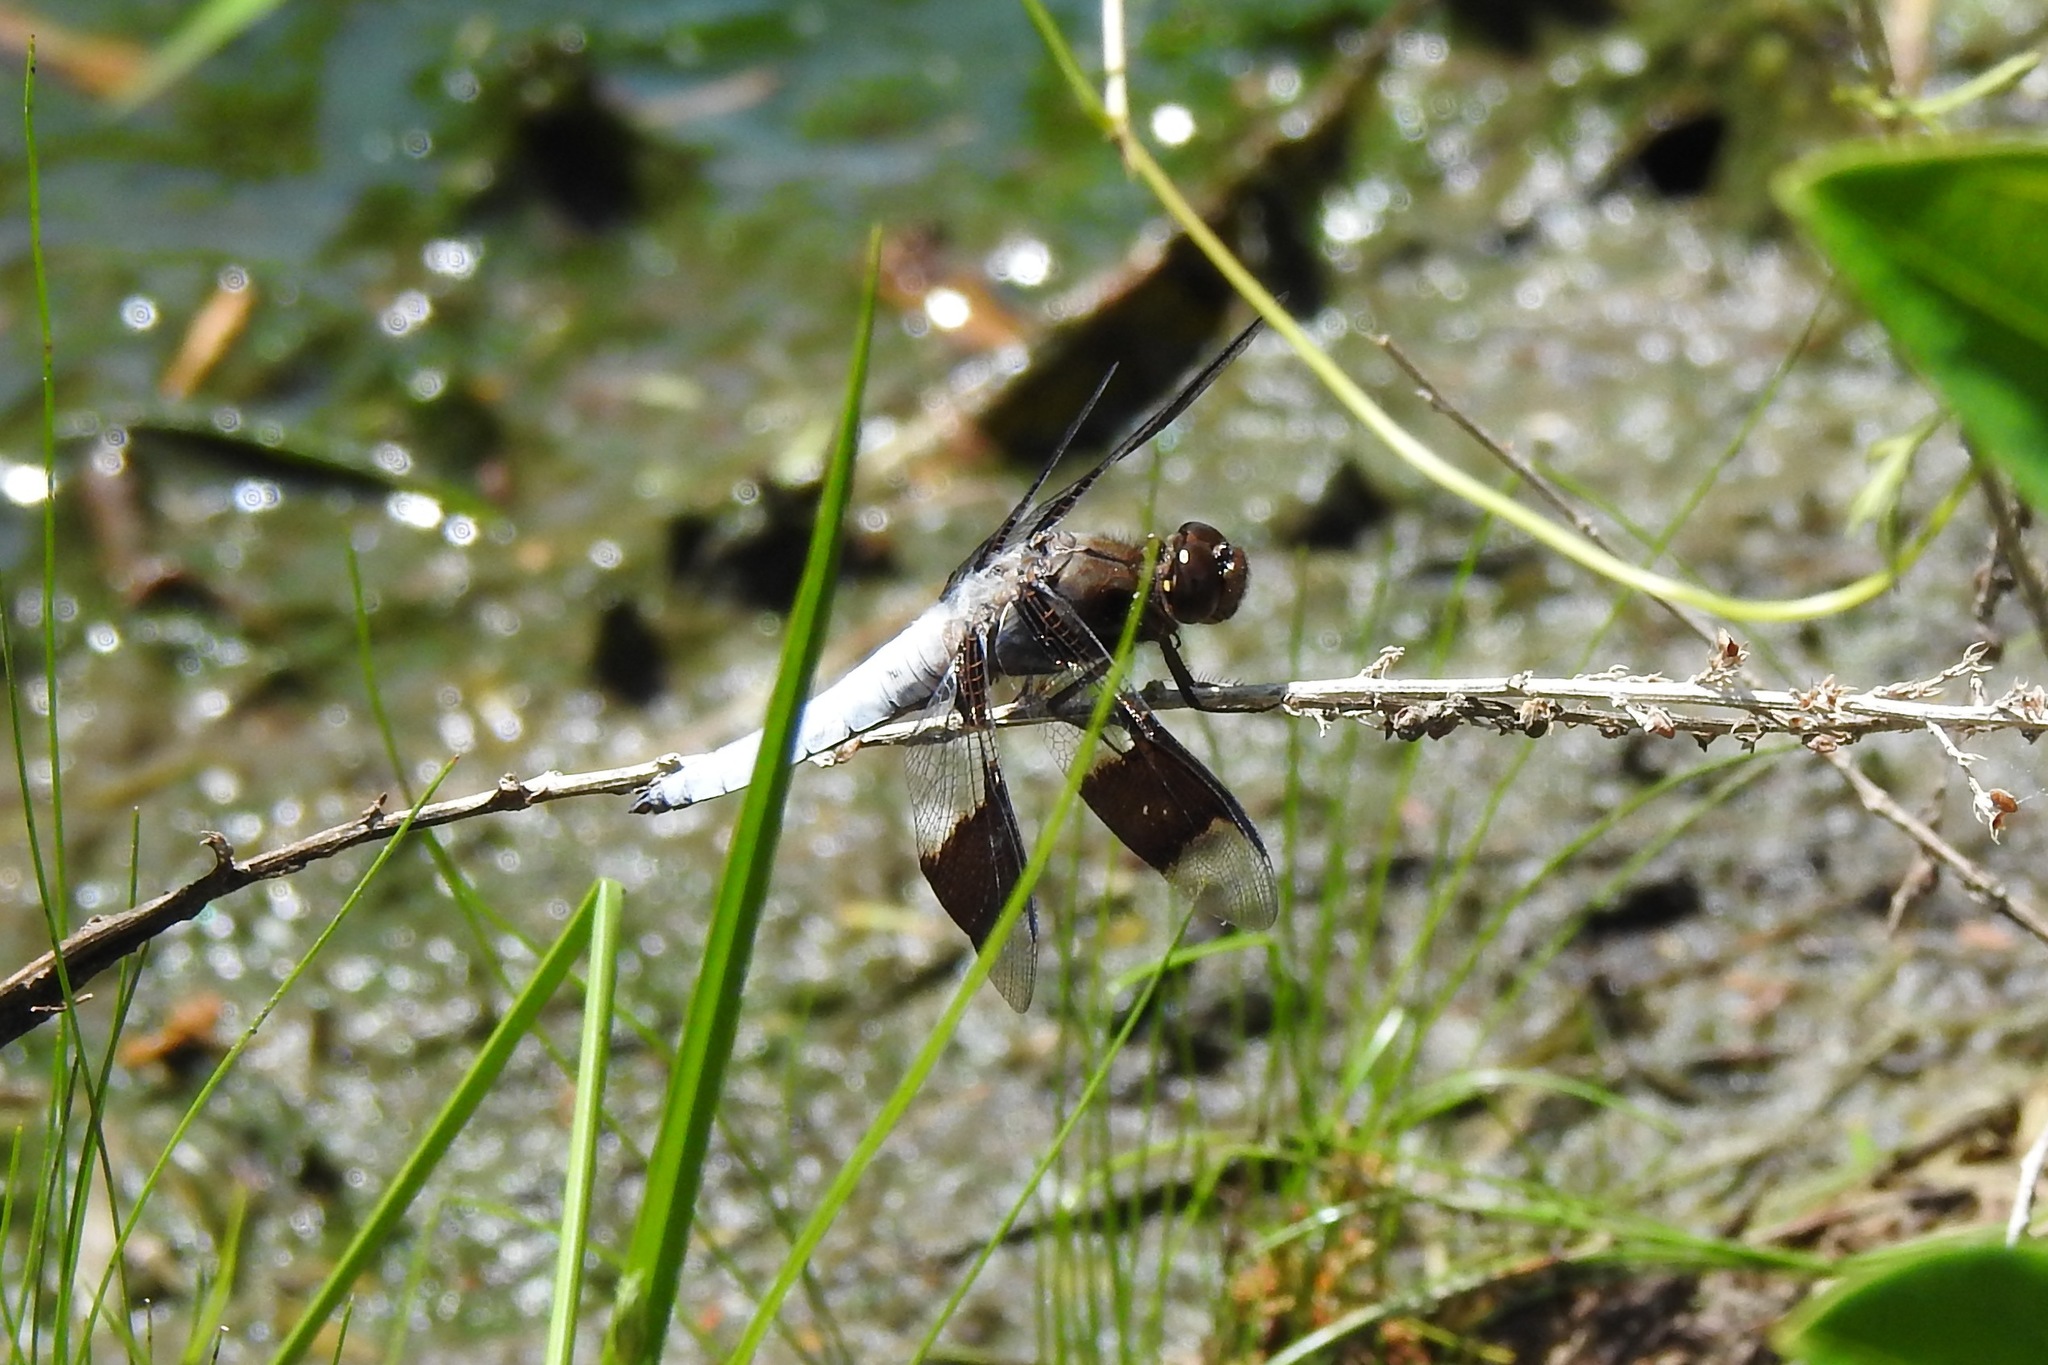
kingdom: Animalia
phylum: Arthropoda
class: Insecta
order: Odonata
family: Libellulidae
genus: Plathemis
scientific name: Plathemis lydia
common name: Common whitetail
